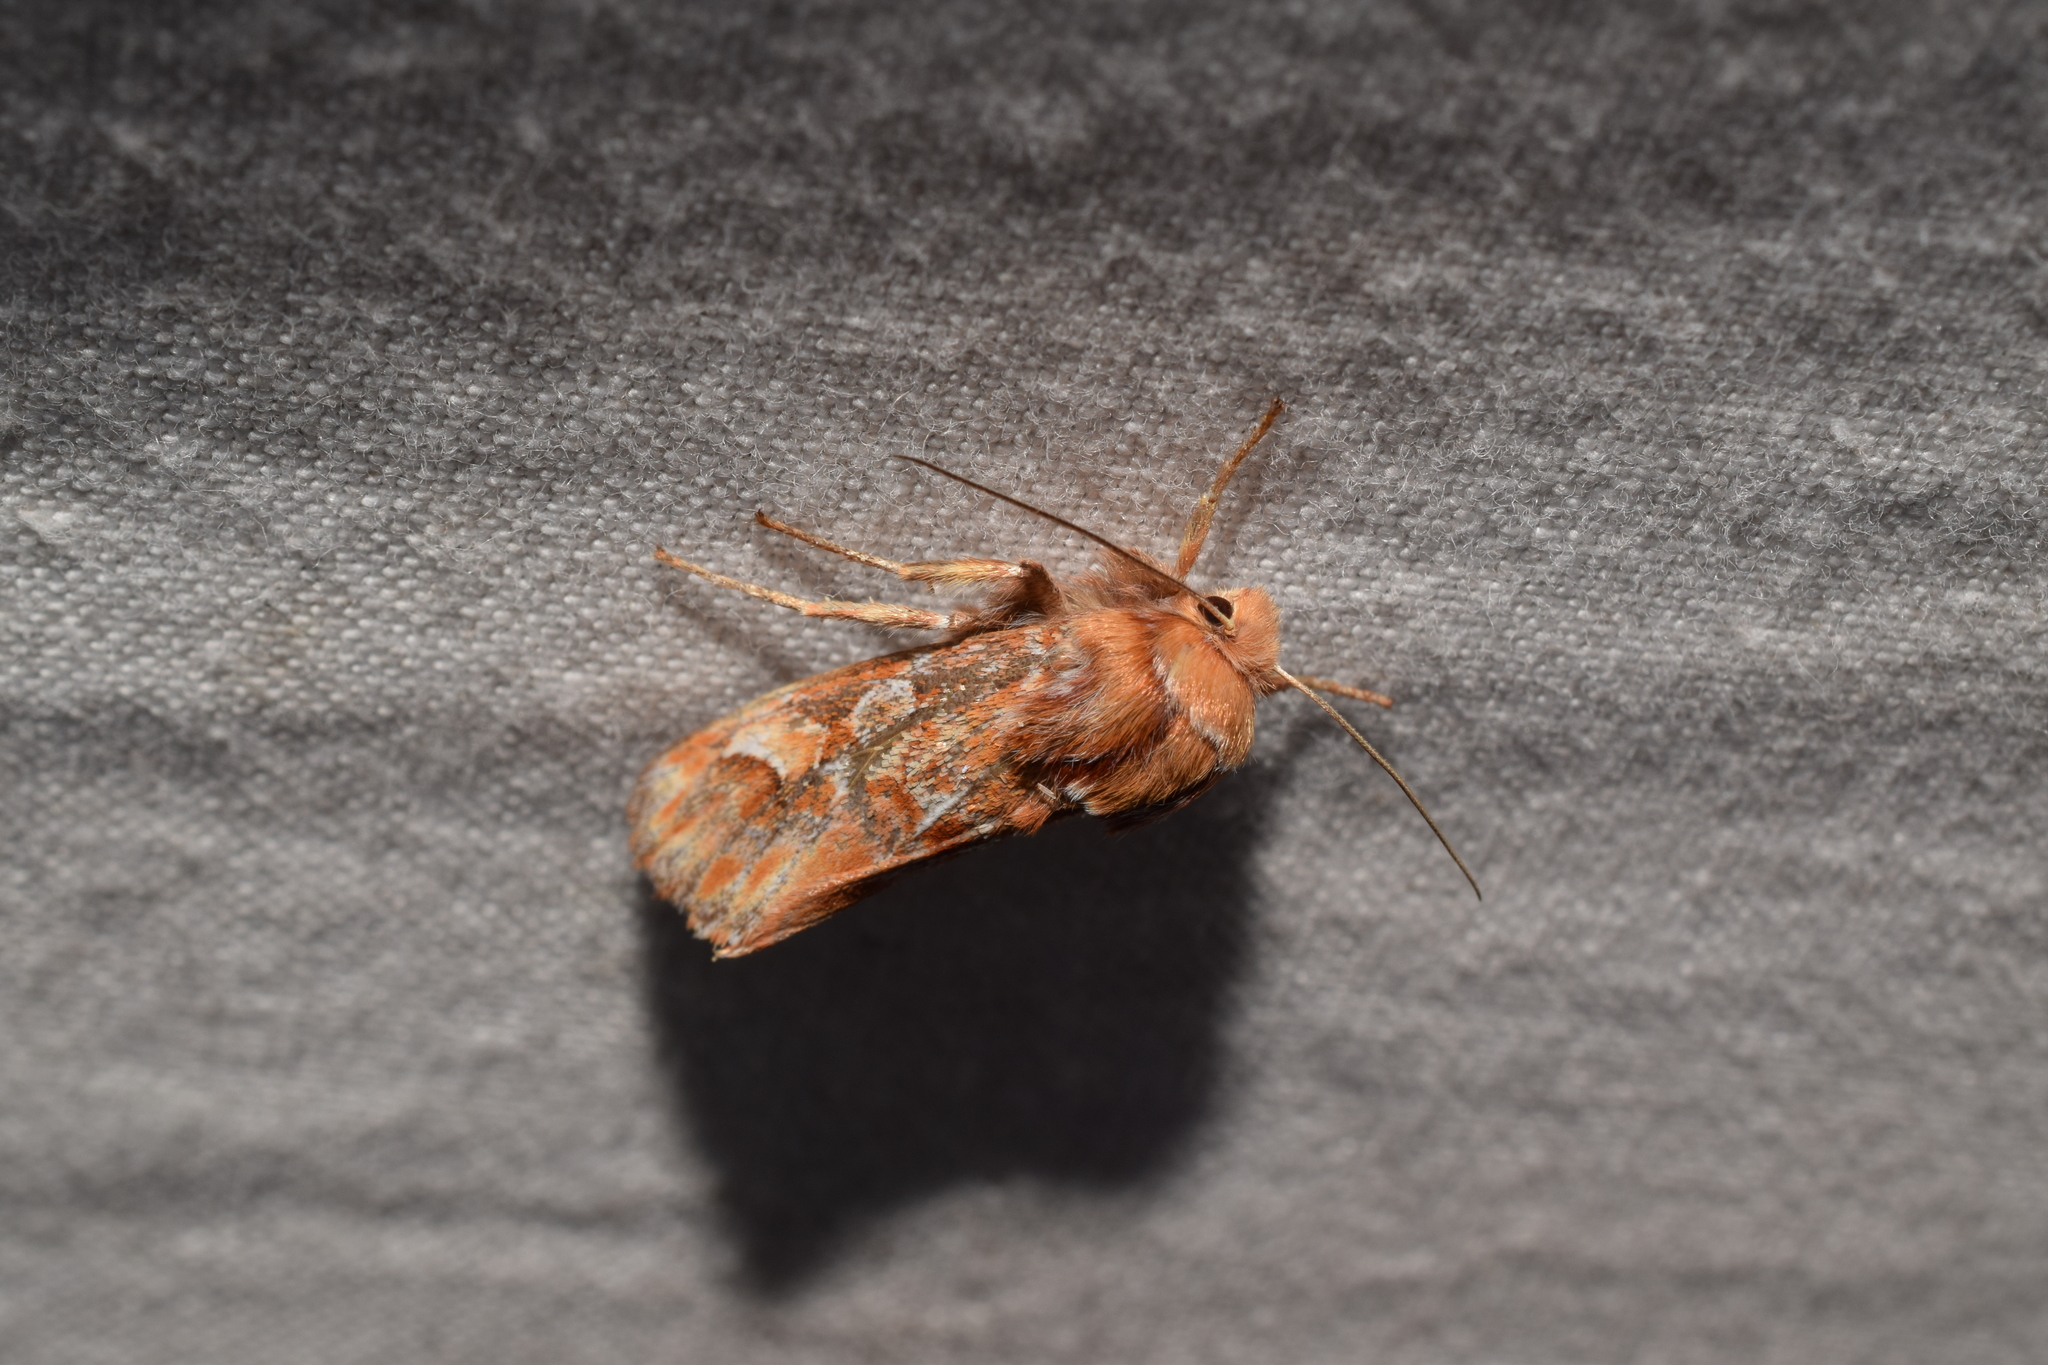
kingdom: Animalia
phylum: Arthropoda
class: Insecta
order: Lepidoptera
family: Noctuidae
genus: Panolis
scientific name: Panolis japonica
